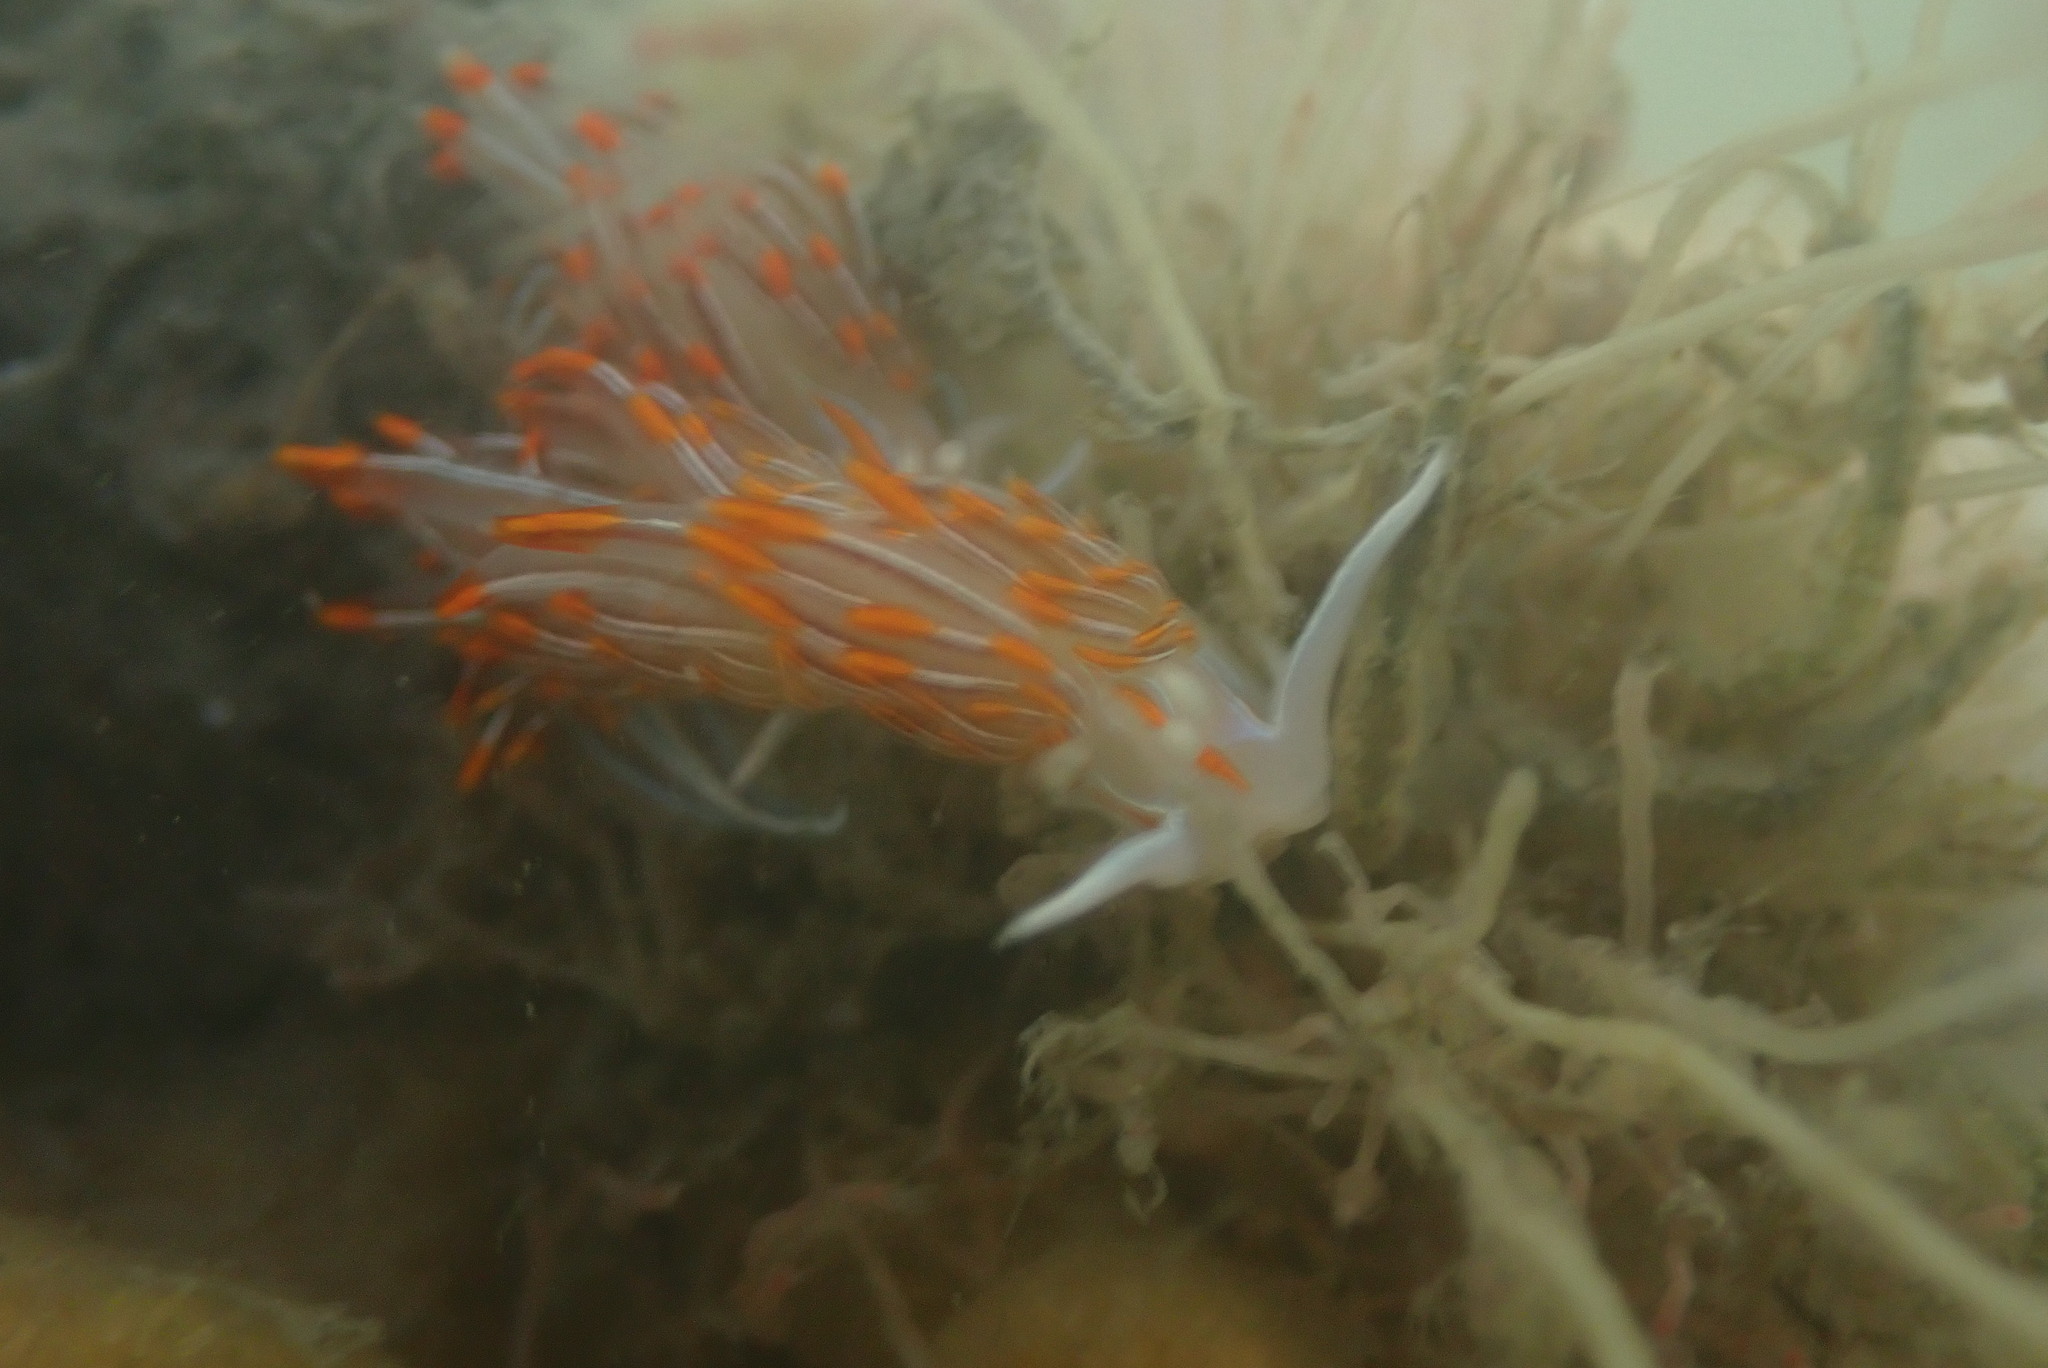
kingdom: Animalia
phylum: Mollusca
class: Gastropoda
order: Nudibranchia
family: Myrrhinidae
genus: Hermissenda
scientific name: Hermissenda crassicornis
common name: Hermissenda
